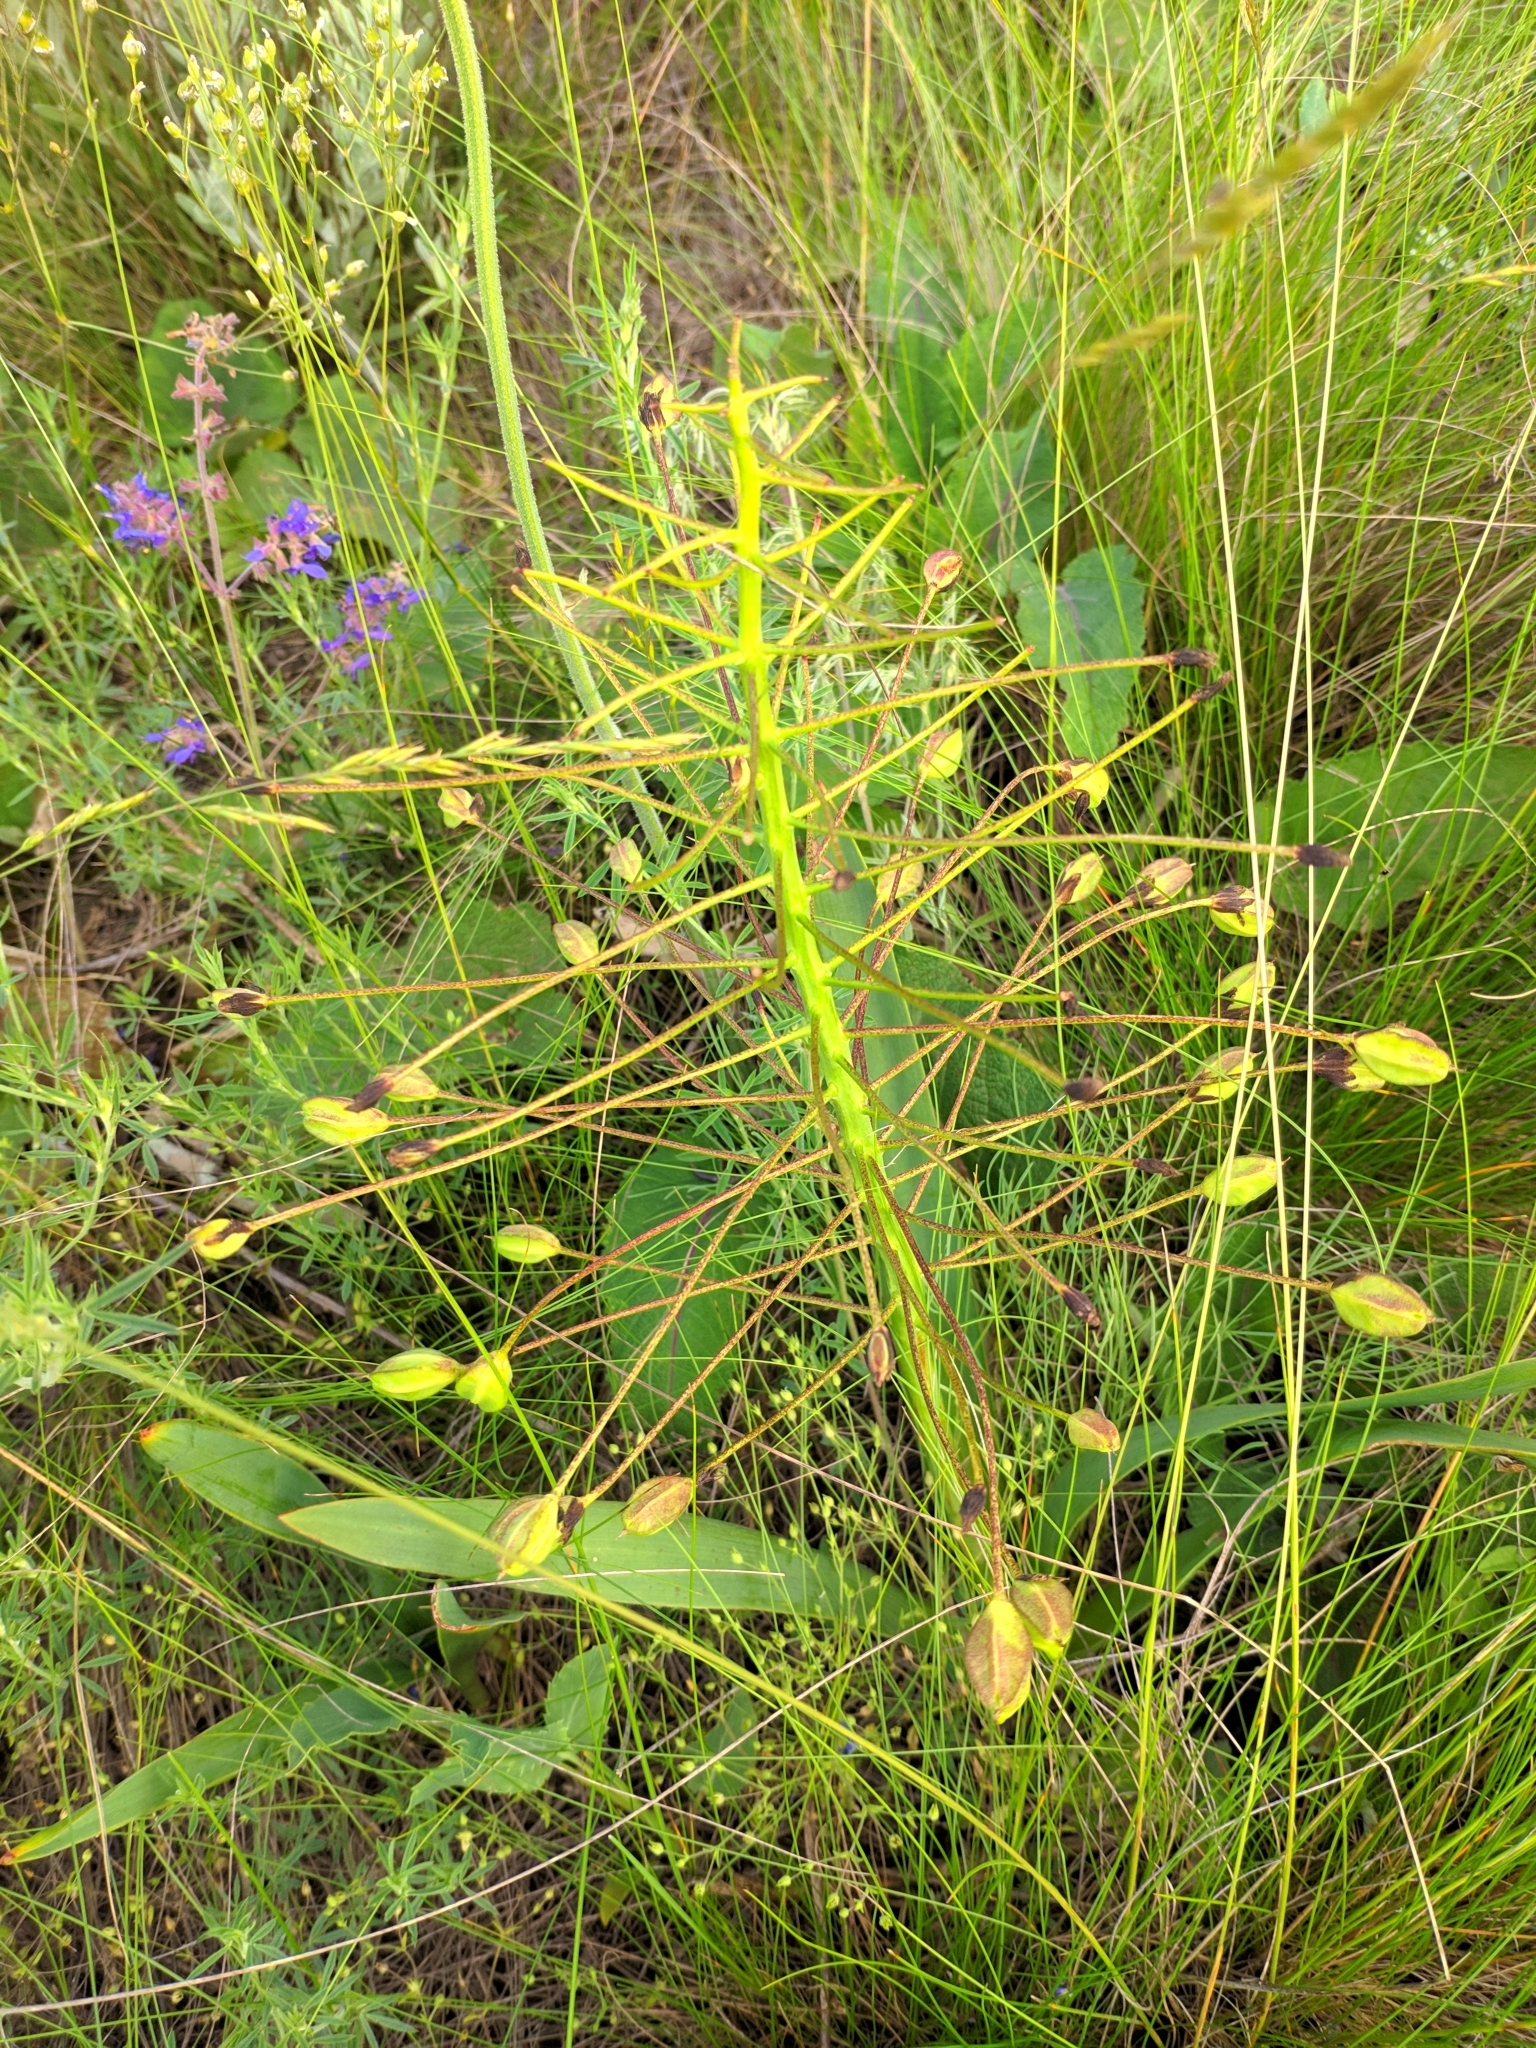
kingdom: Plantae
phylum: Tracheophyta
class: Liliopsida
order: Asparagales
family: Asparagaceae
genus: Bellevalia
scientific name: Bellevalia speciosa
